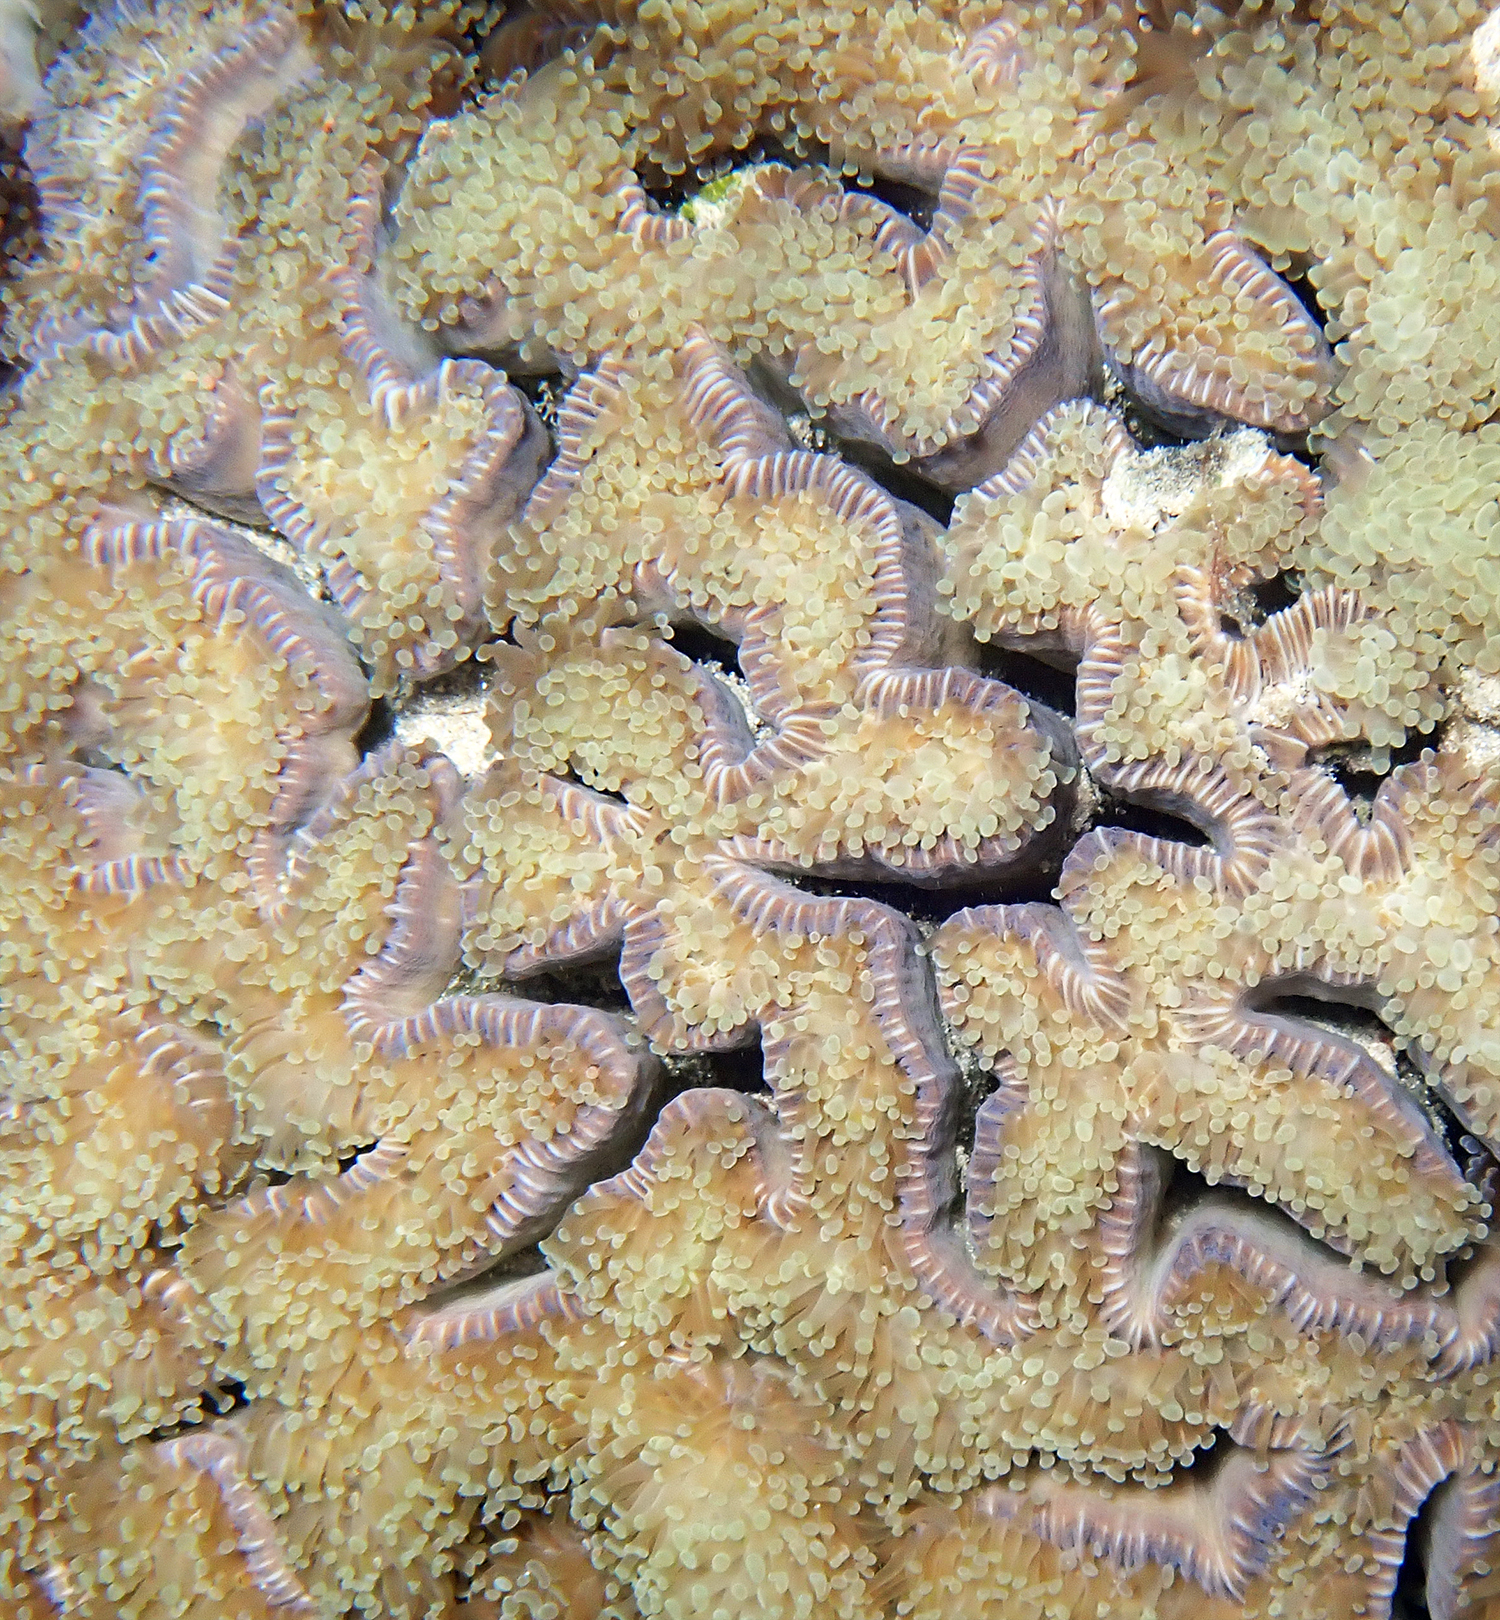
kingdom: Animalia
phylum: Cnidaria
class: Anthozoa
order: Scleractinia
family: Euphylliidae
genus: Fimbriaphyllia
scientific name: Fimbriaphyllia ancora
